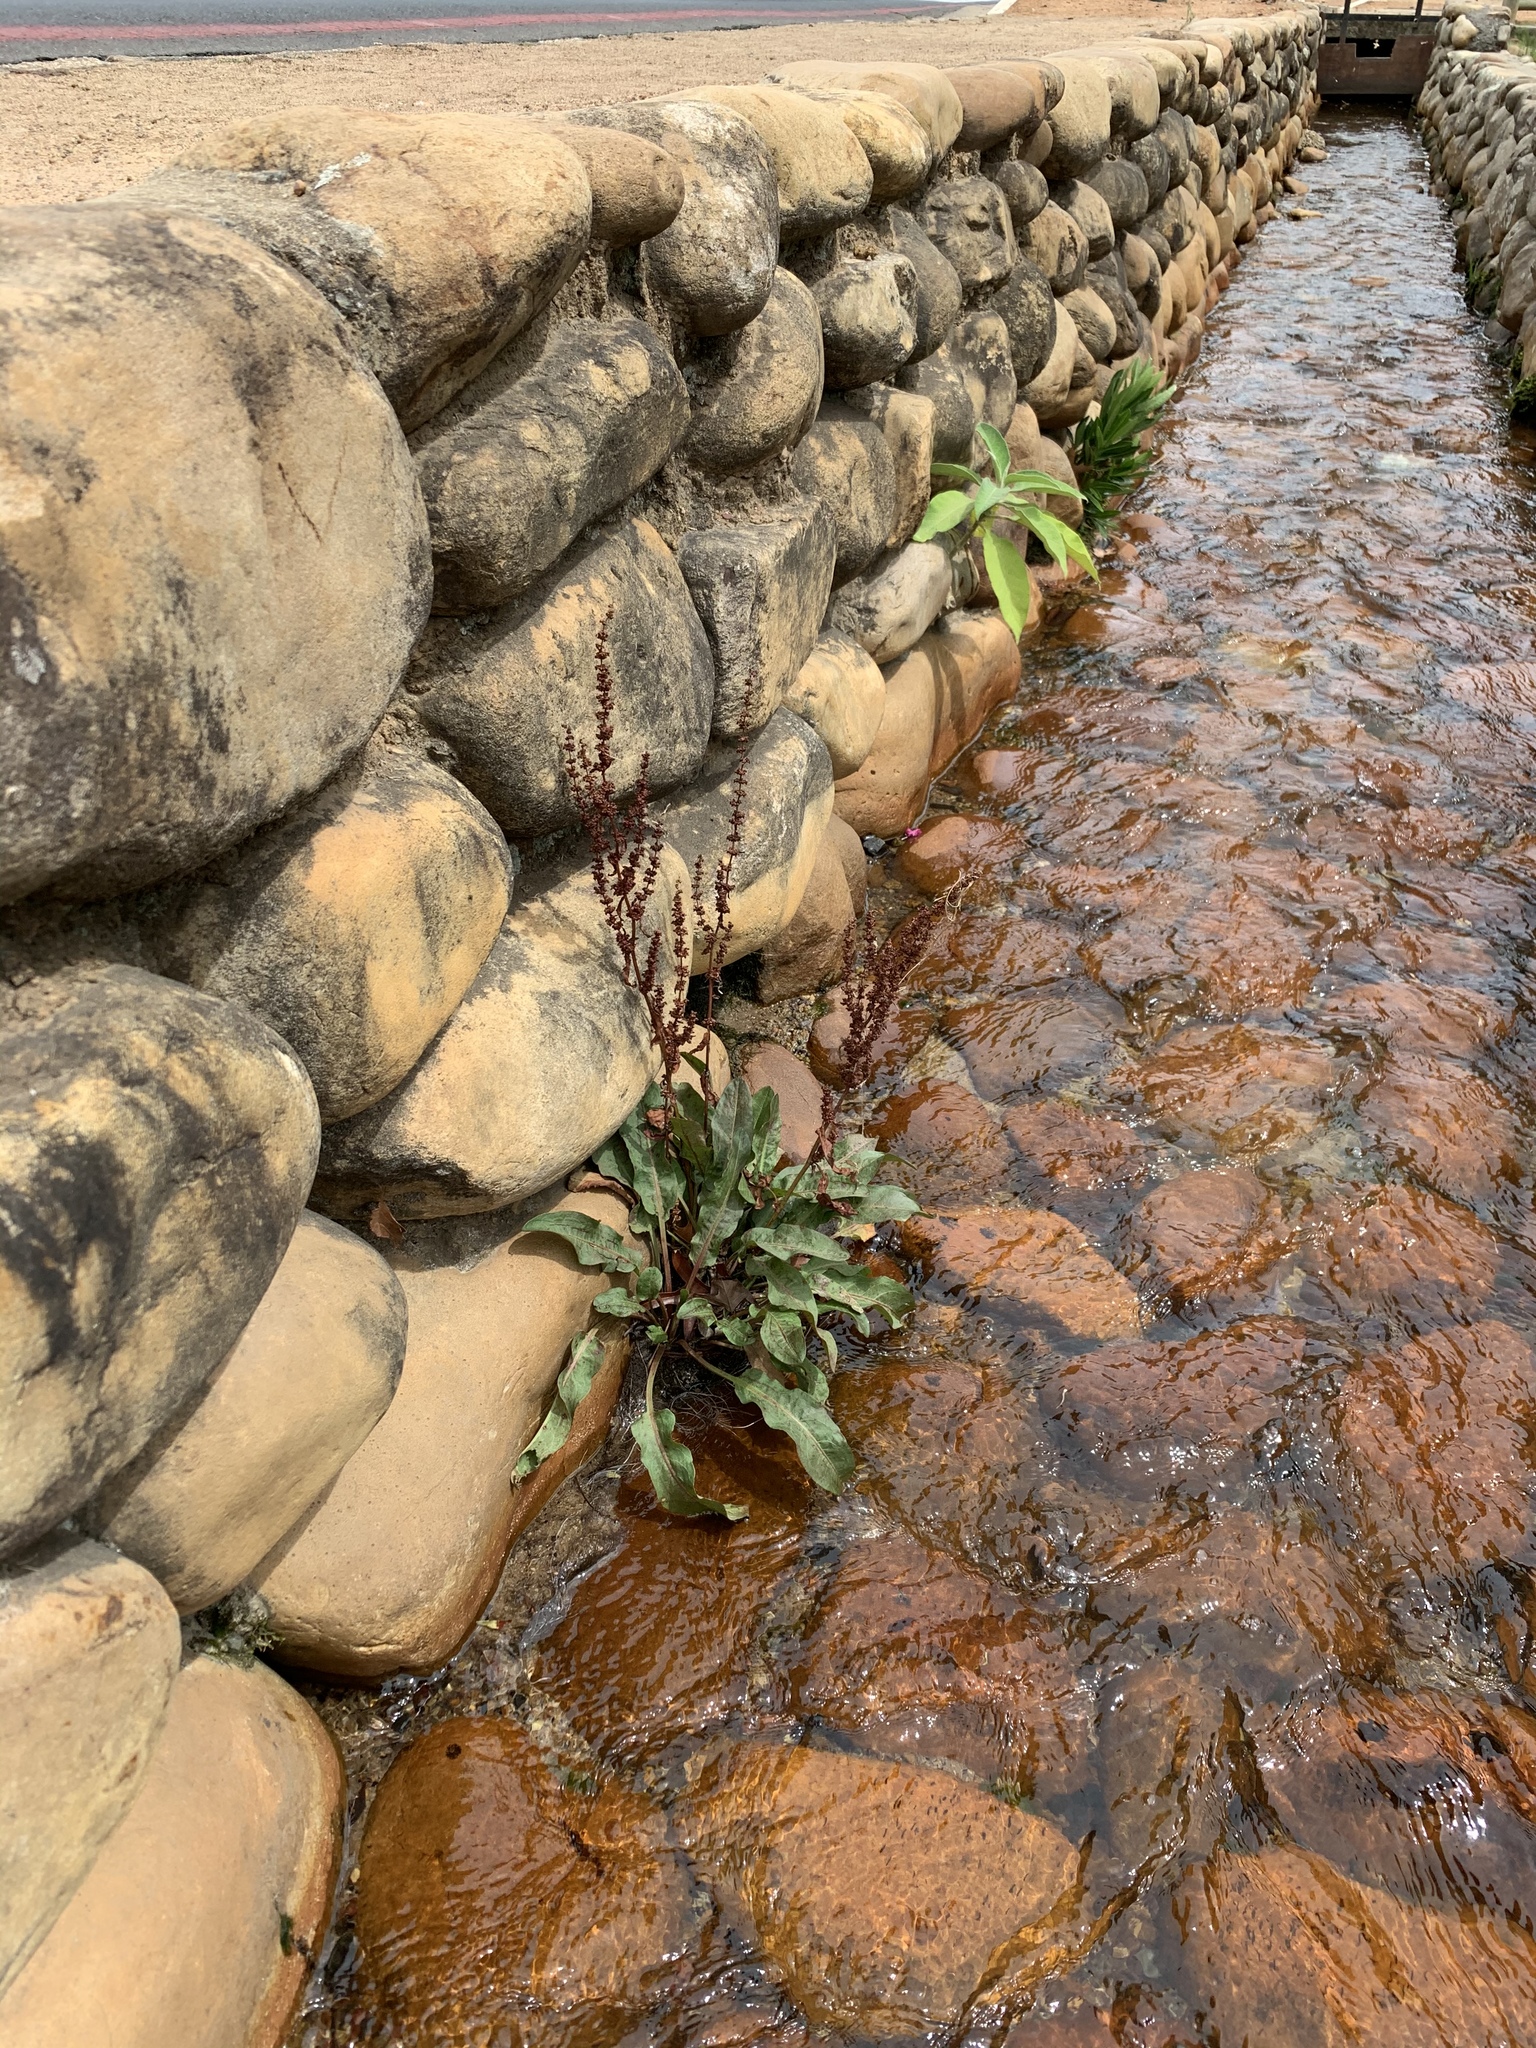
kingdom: Plantae
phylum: Tracheophyta
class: Magnoliopsida
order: Caryophyllales
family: Polygonaceae
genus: Rumex
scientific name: Rumex crispus
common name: Curled dock
